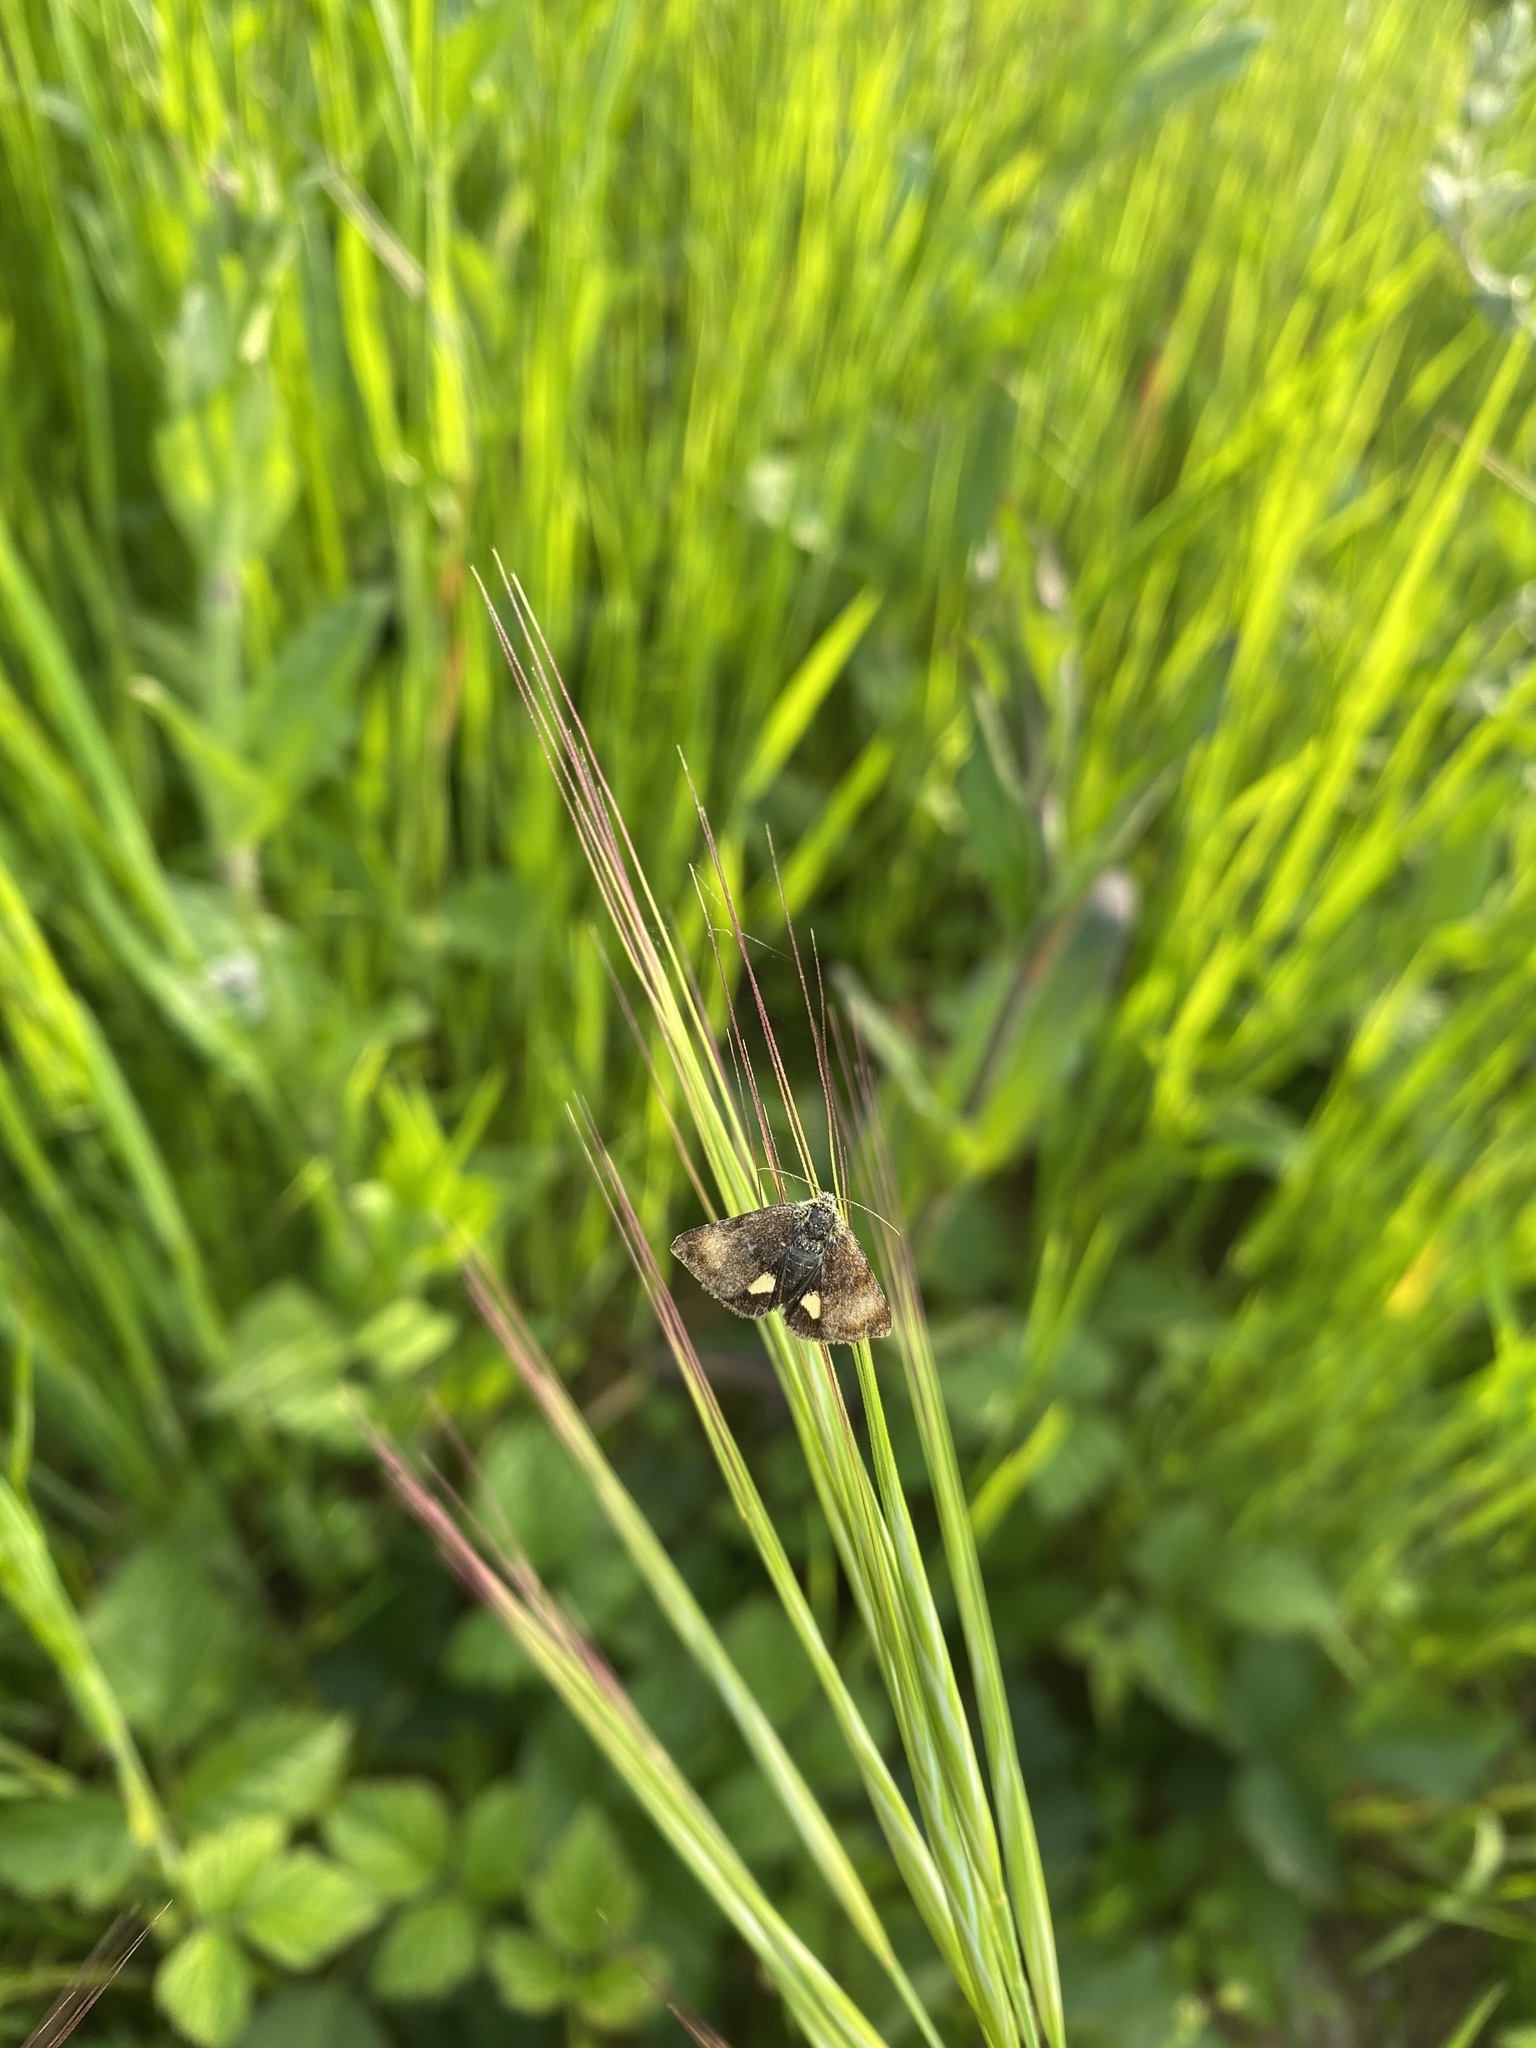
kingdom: Animalia
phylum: Arthropoda
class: Insecta
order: Lepidoptera
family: Noctuidae
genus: Panemeria
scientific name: Panemeria tenebrata
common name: Small yellow underwing
